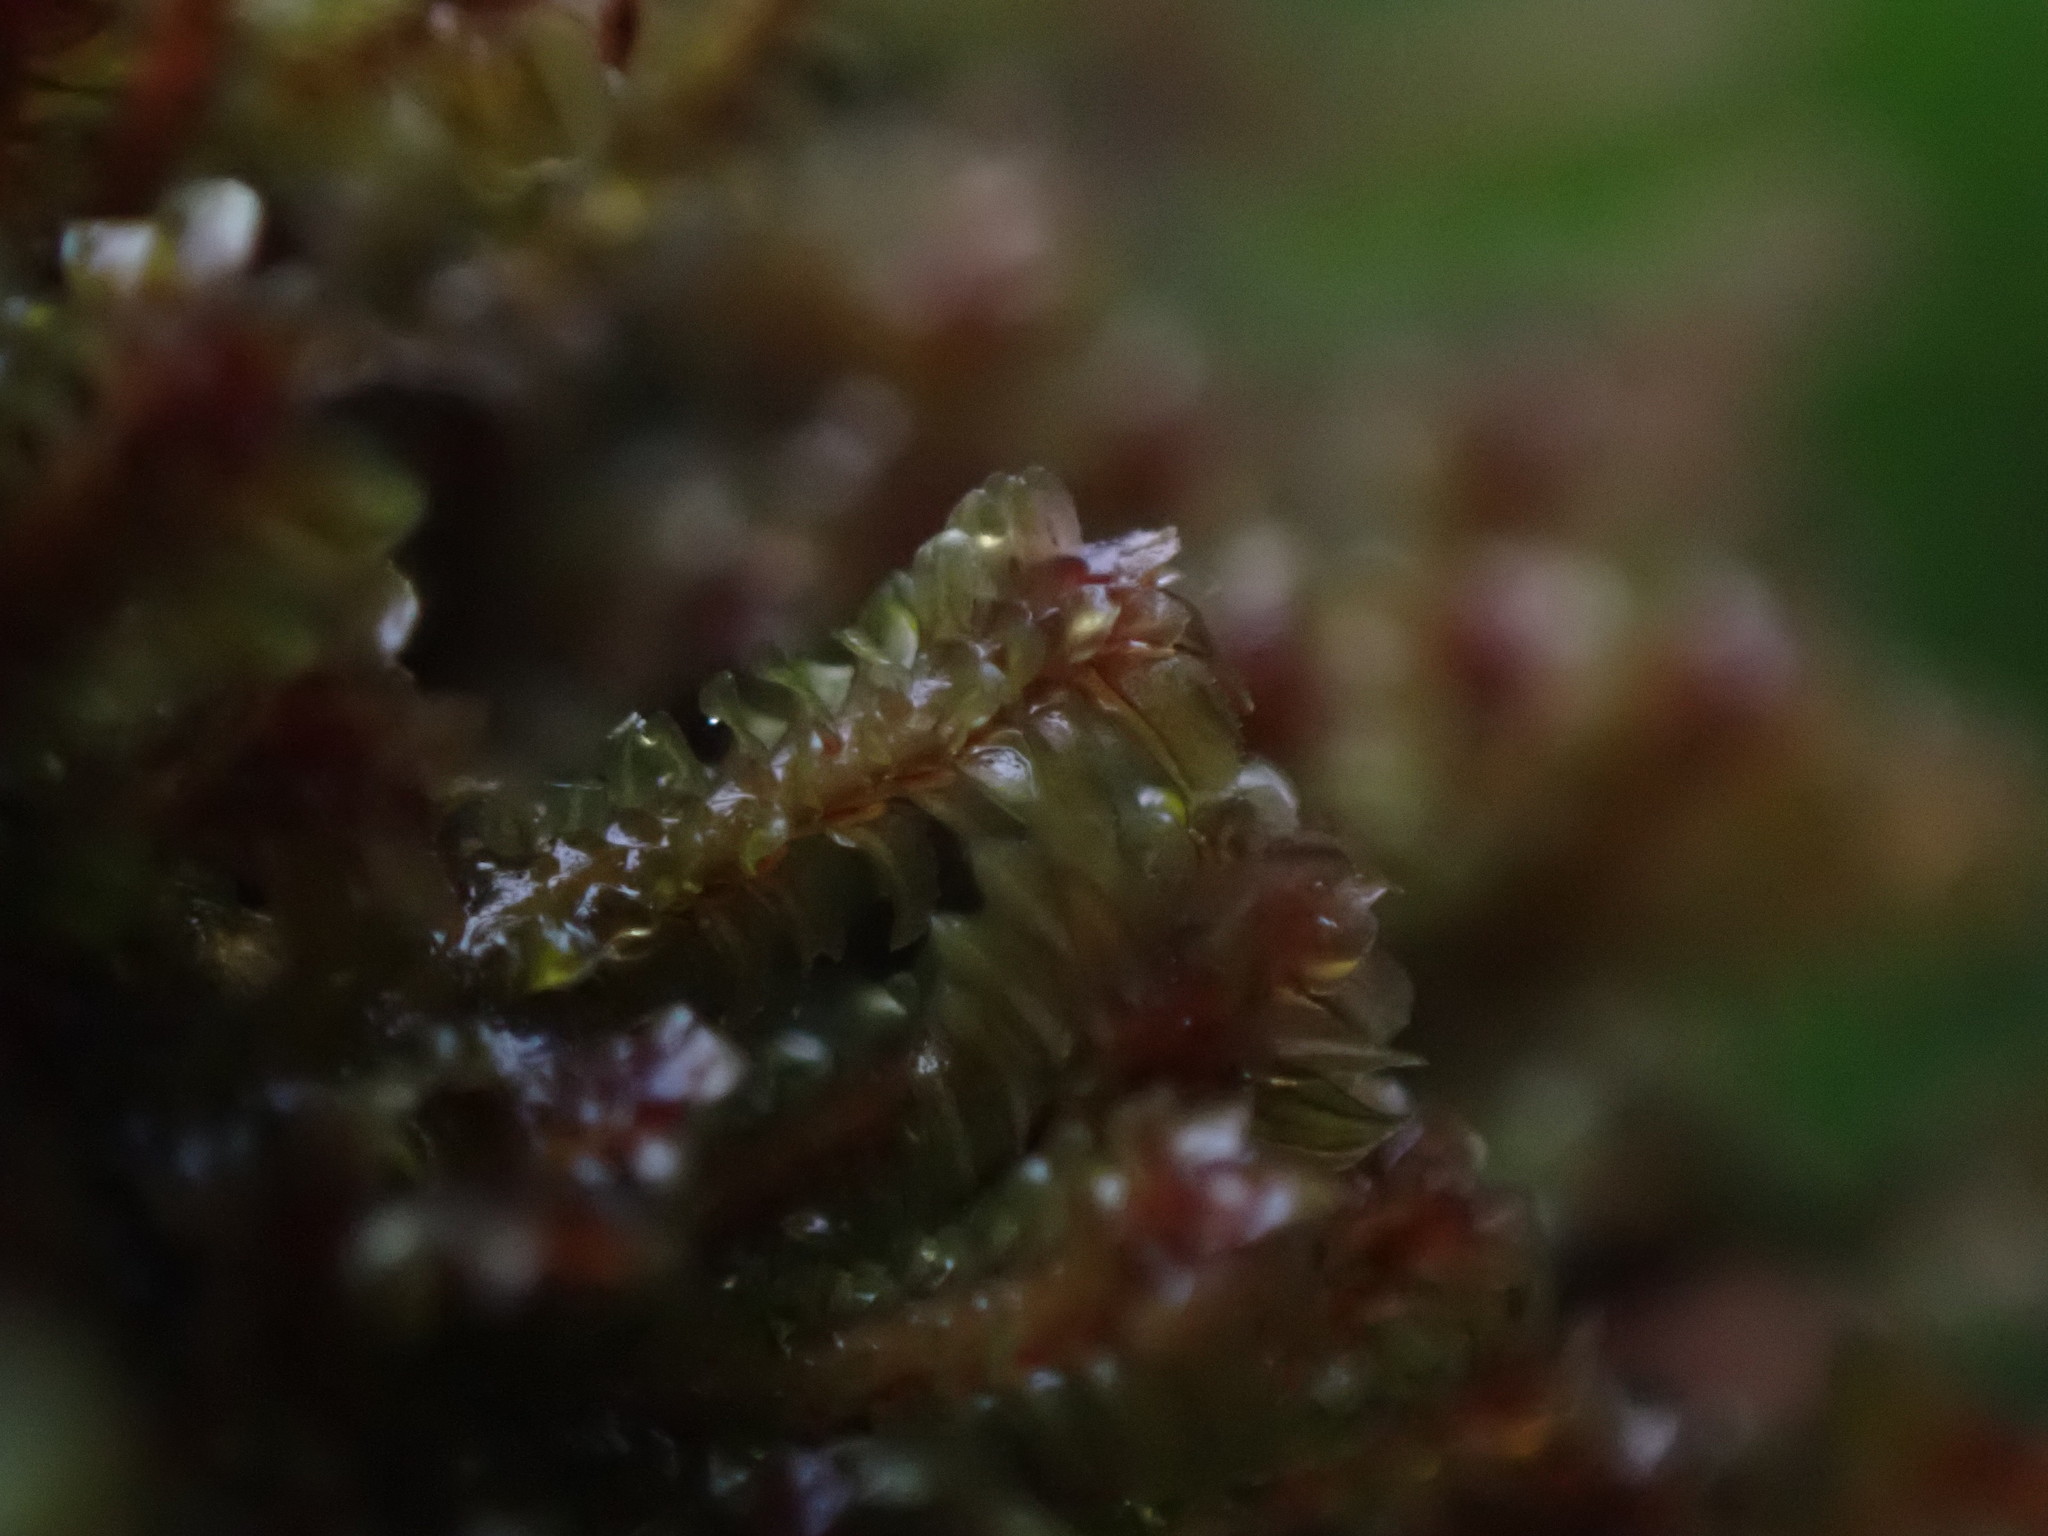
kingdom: Plantae
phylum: Marchantiophyta
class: Jungermanniopsida
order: Jungermanniales
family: Scapaniaceae
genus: Diplophyllum
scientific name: Diplophyllum albicans
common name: White earwort
